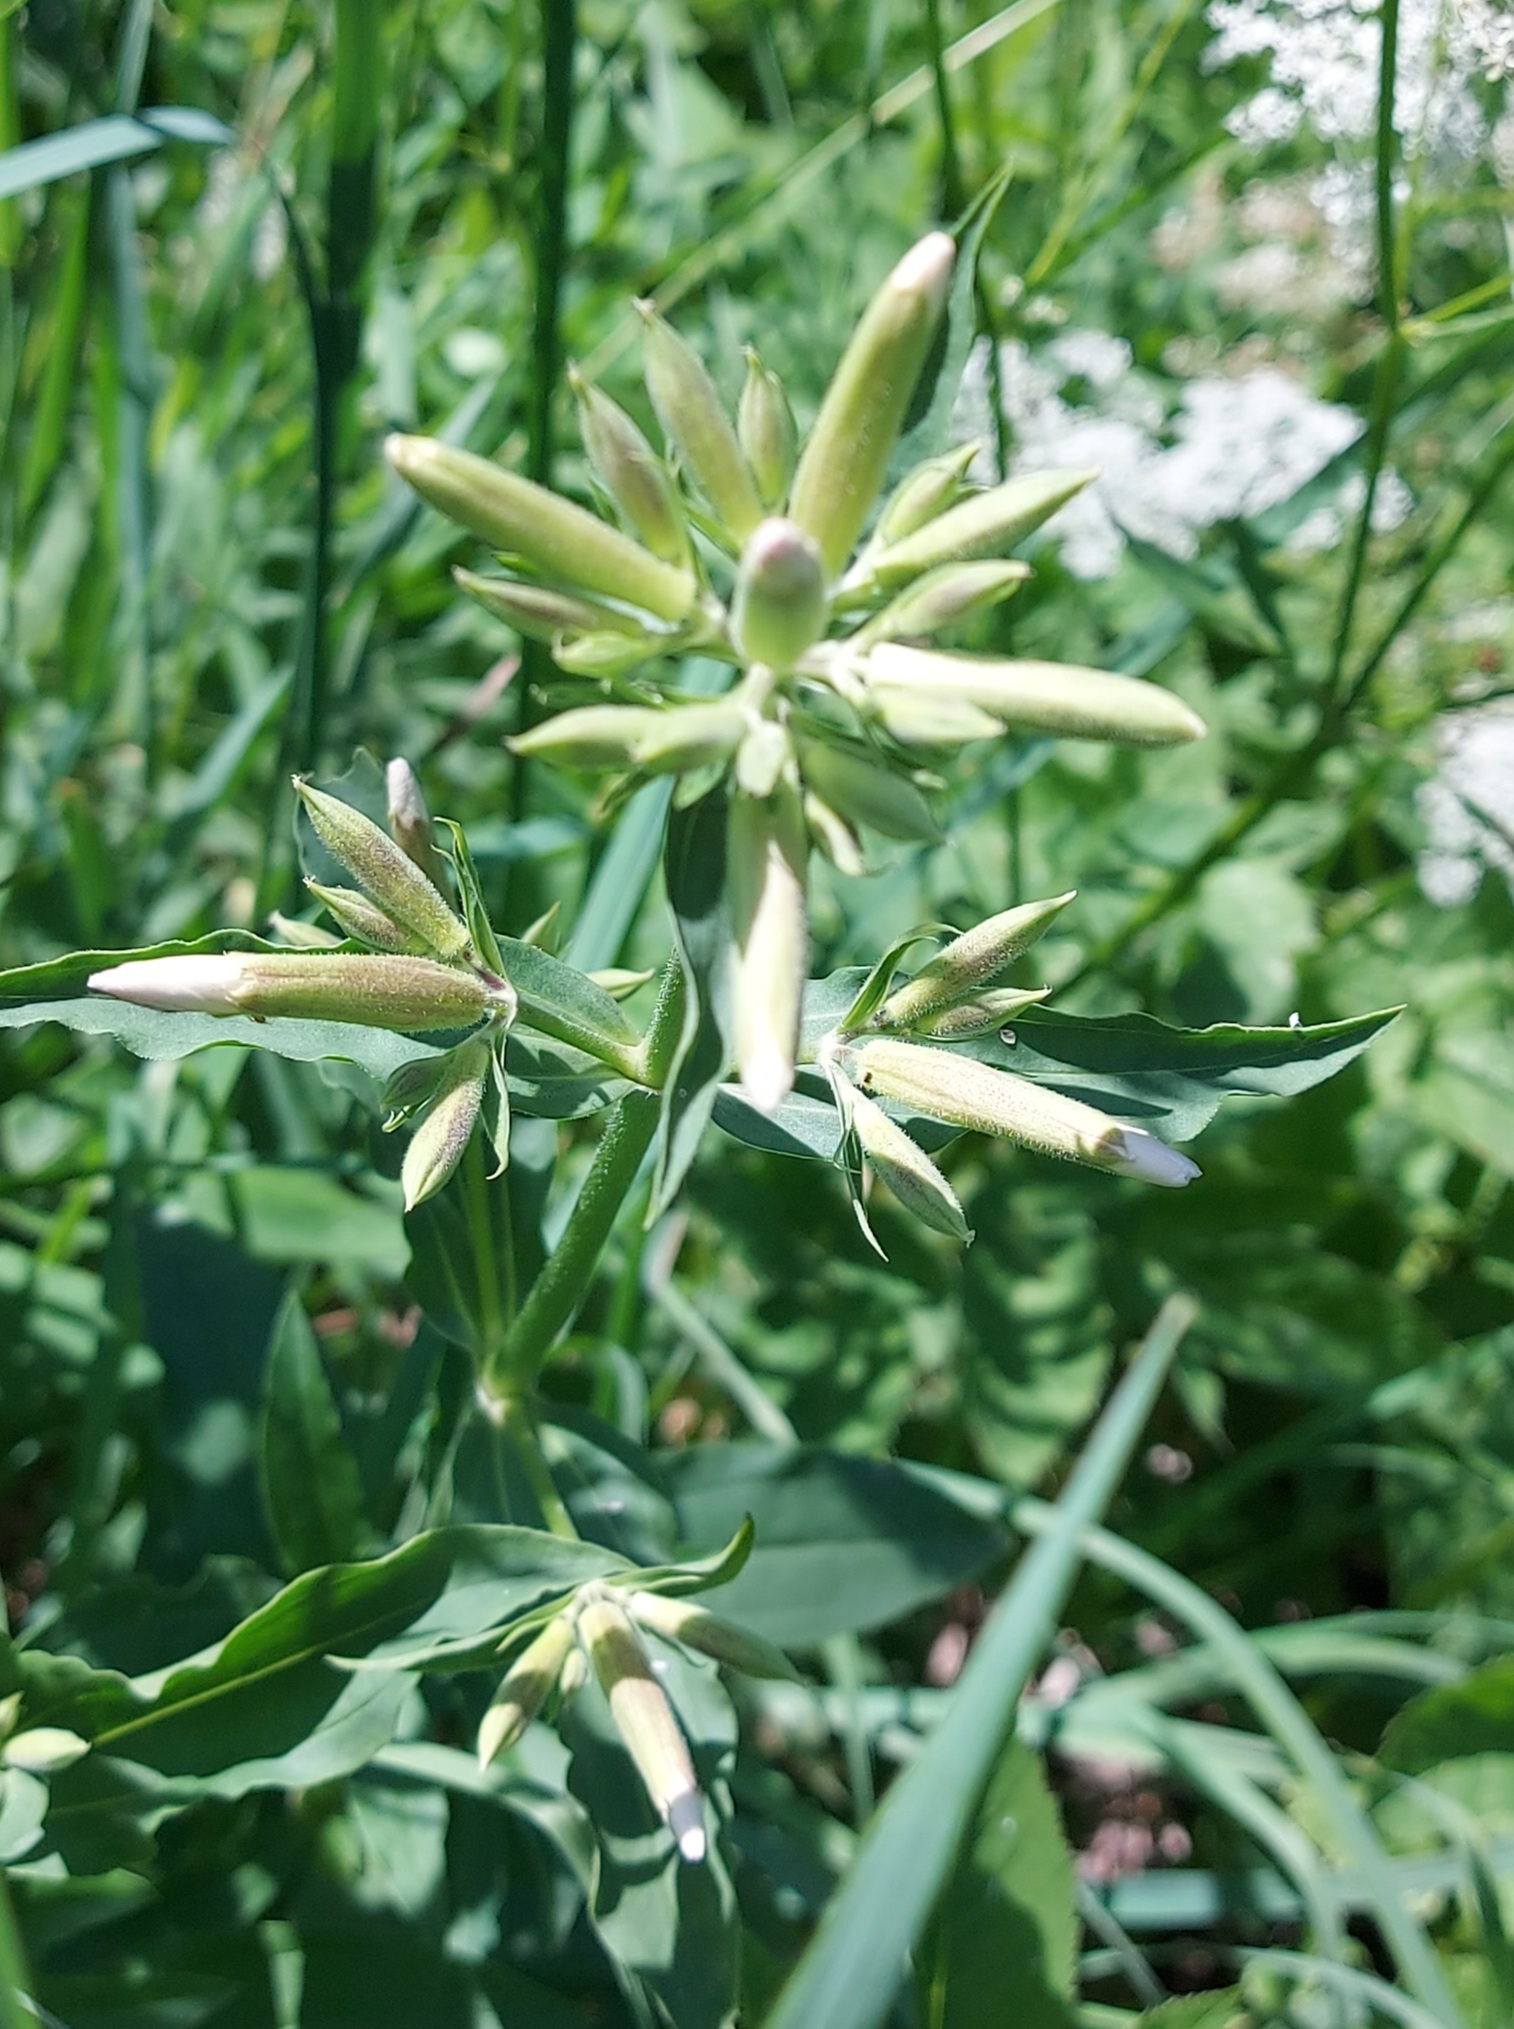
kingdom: Plantae
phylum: Tracheophyta
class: Magnoliopsida
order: Caryophyllales
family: Caryophyllaceae
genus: Saponaria
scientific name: Saponaria officinalis
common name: Soapwort
